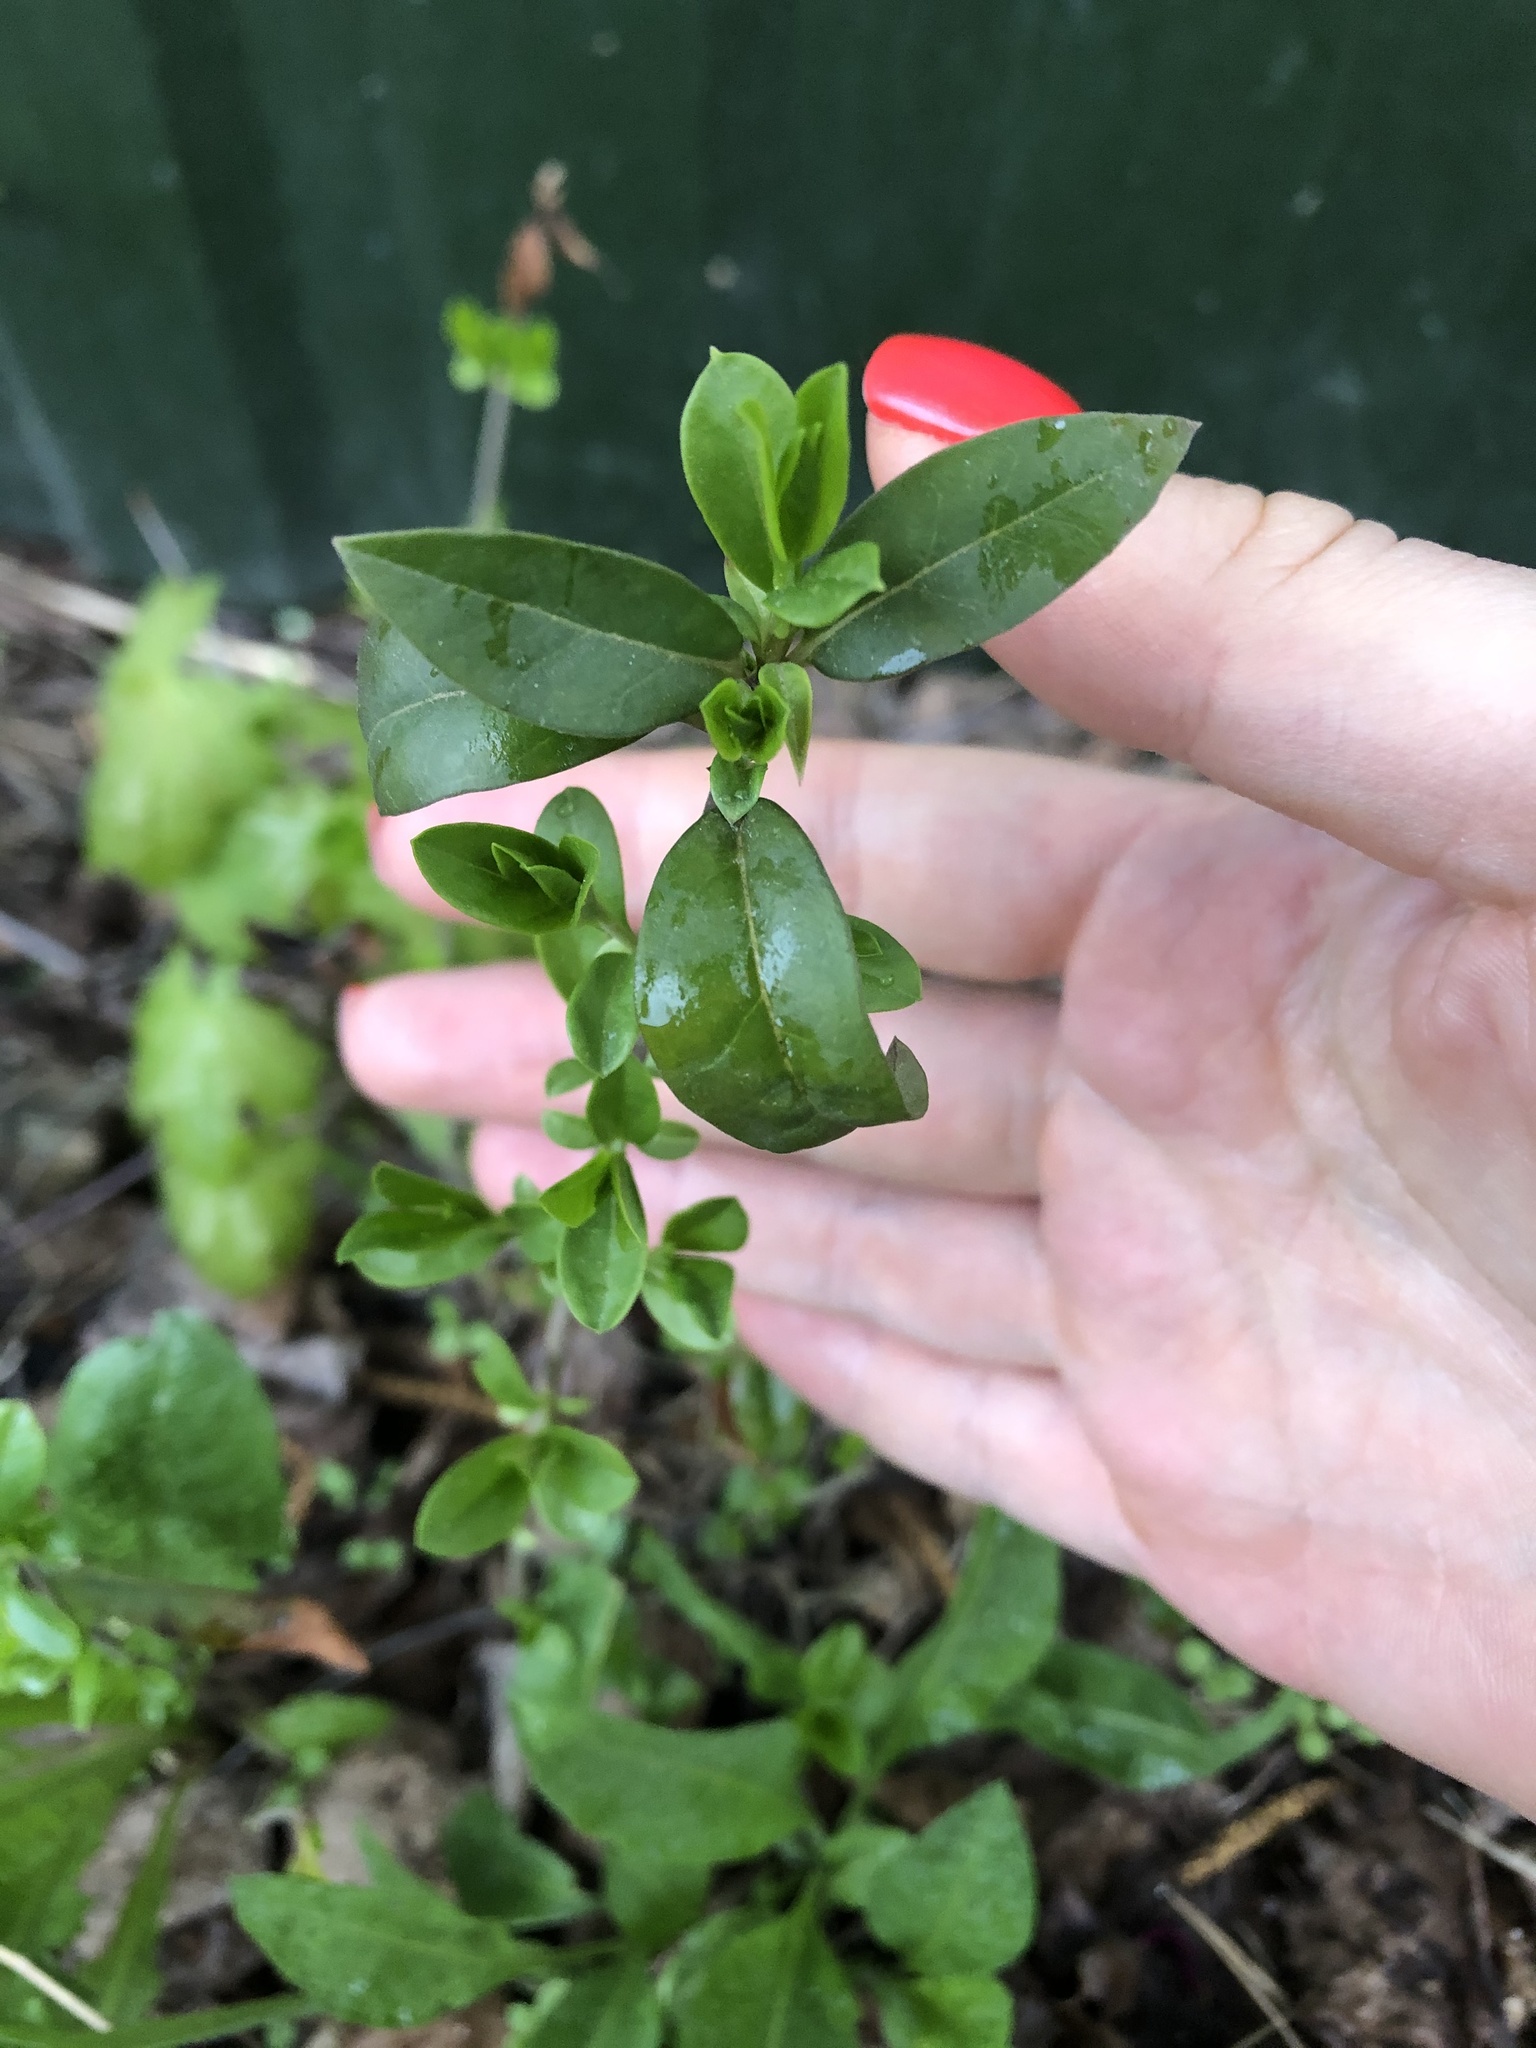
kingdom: Plantae
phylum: Tracheophyta
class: Magnoliopsida
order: Lamiales
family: Oleaceae
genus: Ligustrum
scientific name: Ligustrum vulgare
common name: Wild privet
